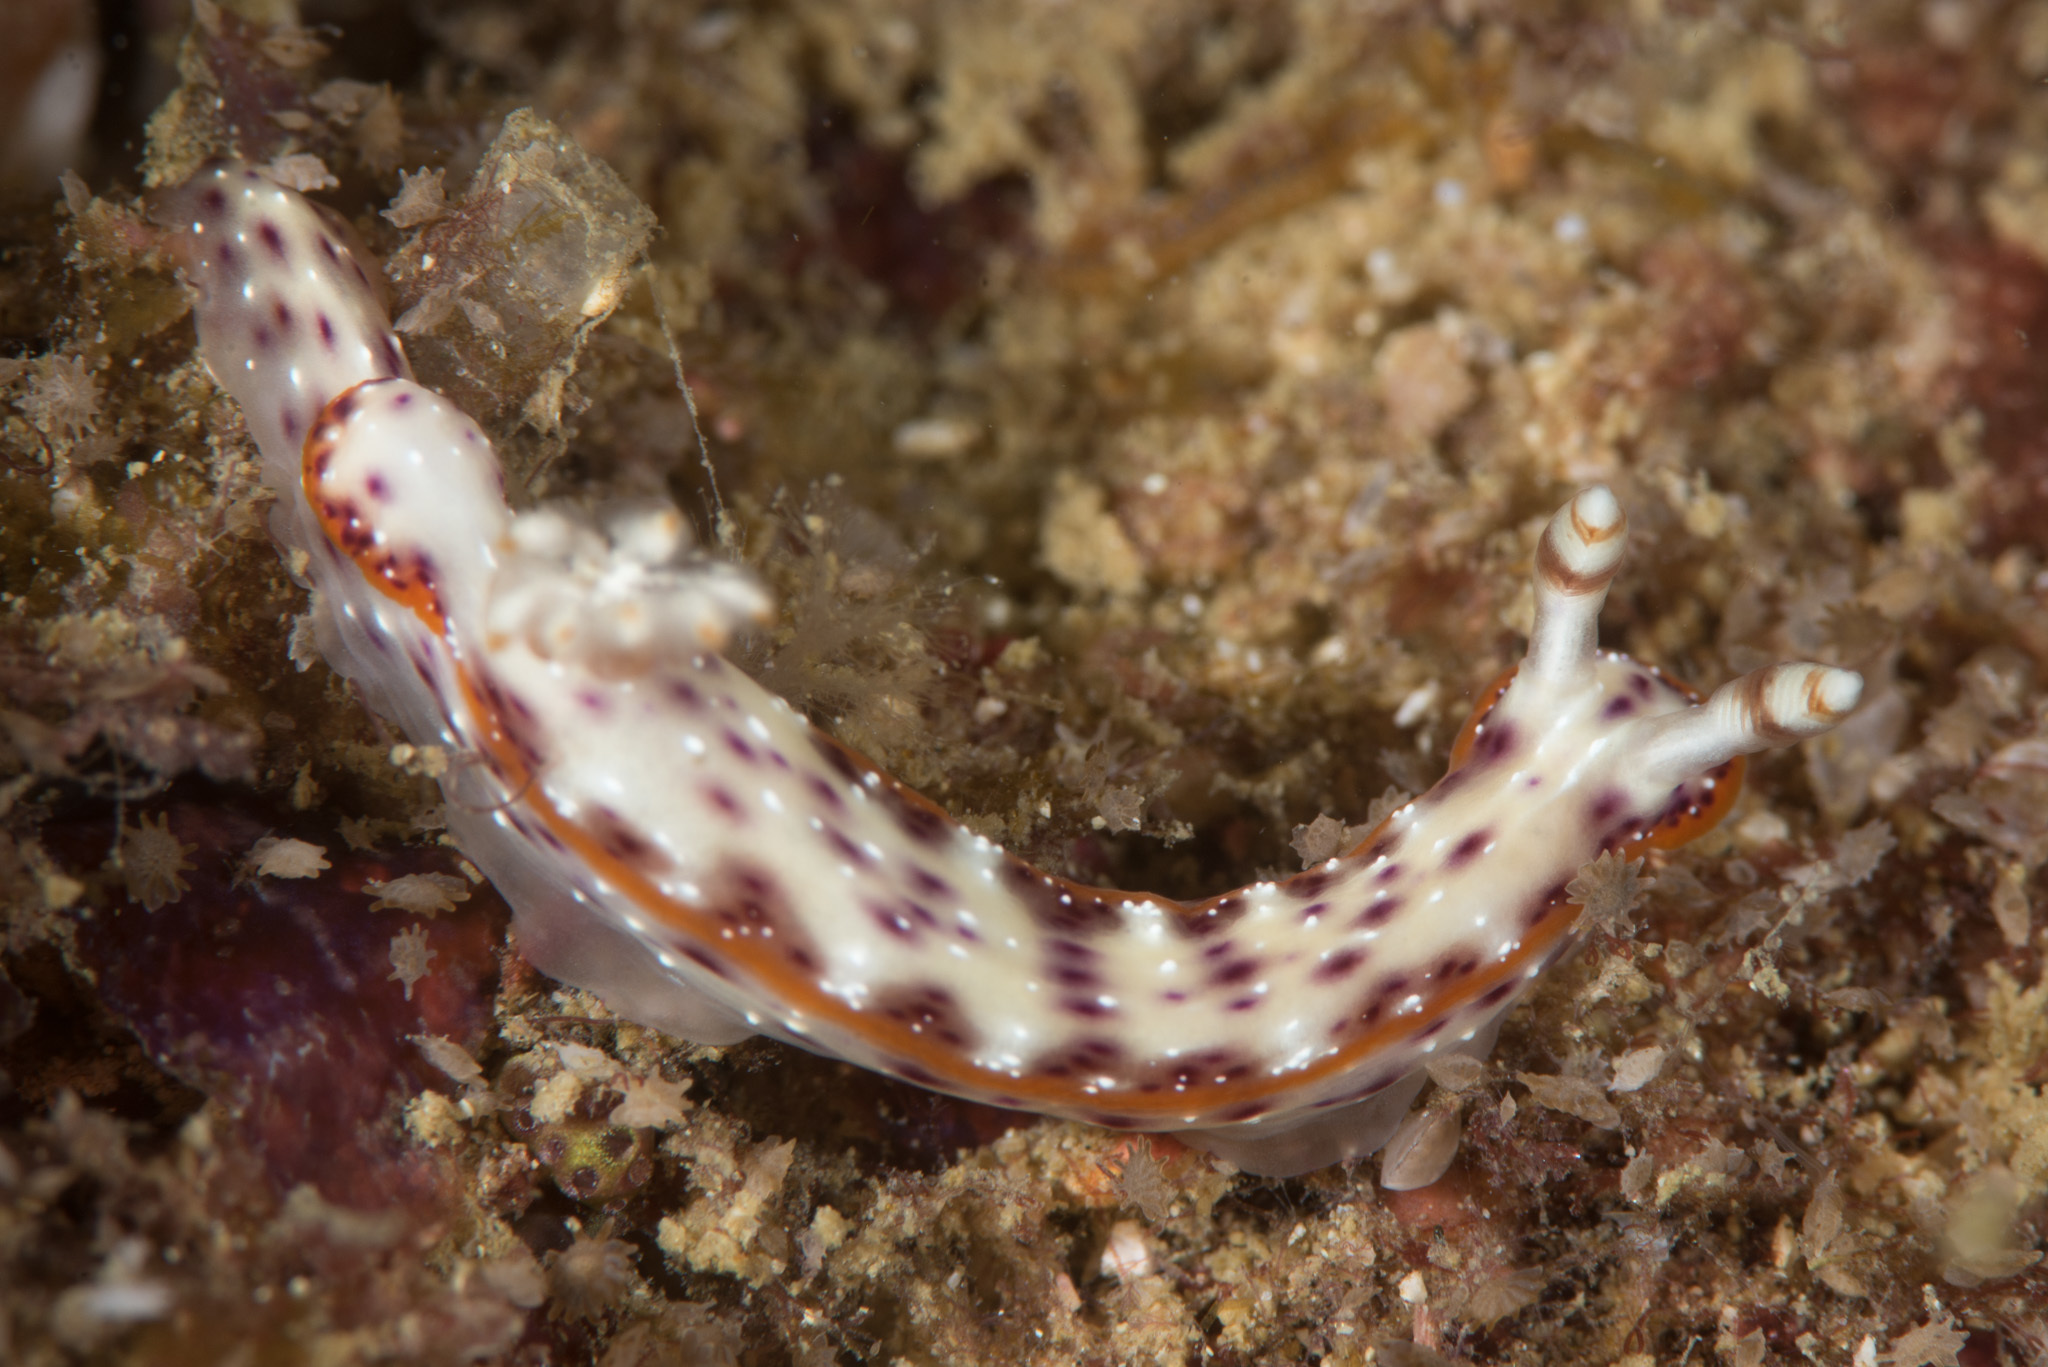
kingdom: Animalia
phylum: Mollusca
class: Gastropoda
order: Nudibranchia
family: Chromodorididae
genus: Hypselodoris
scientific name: Hypselodoris maculosa
